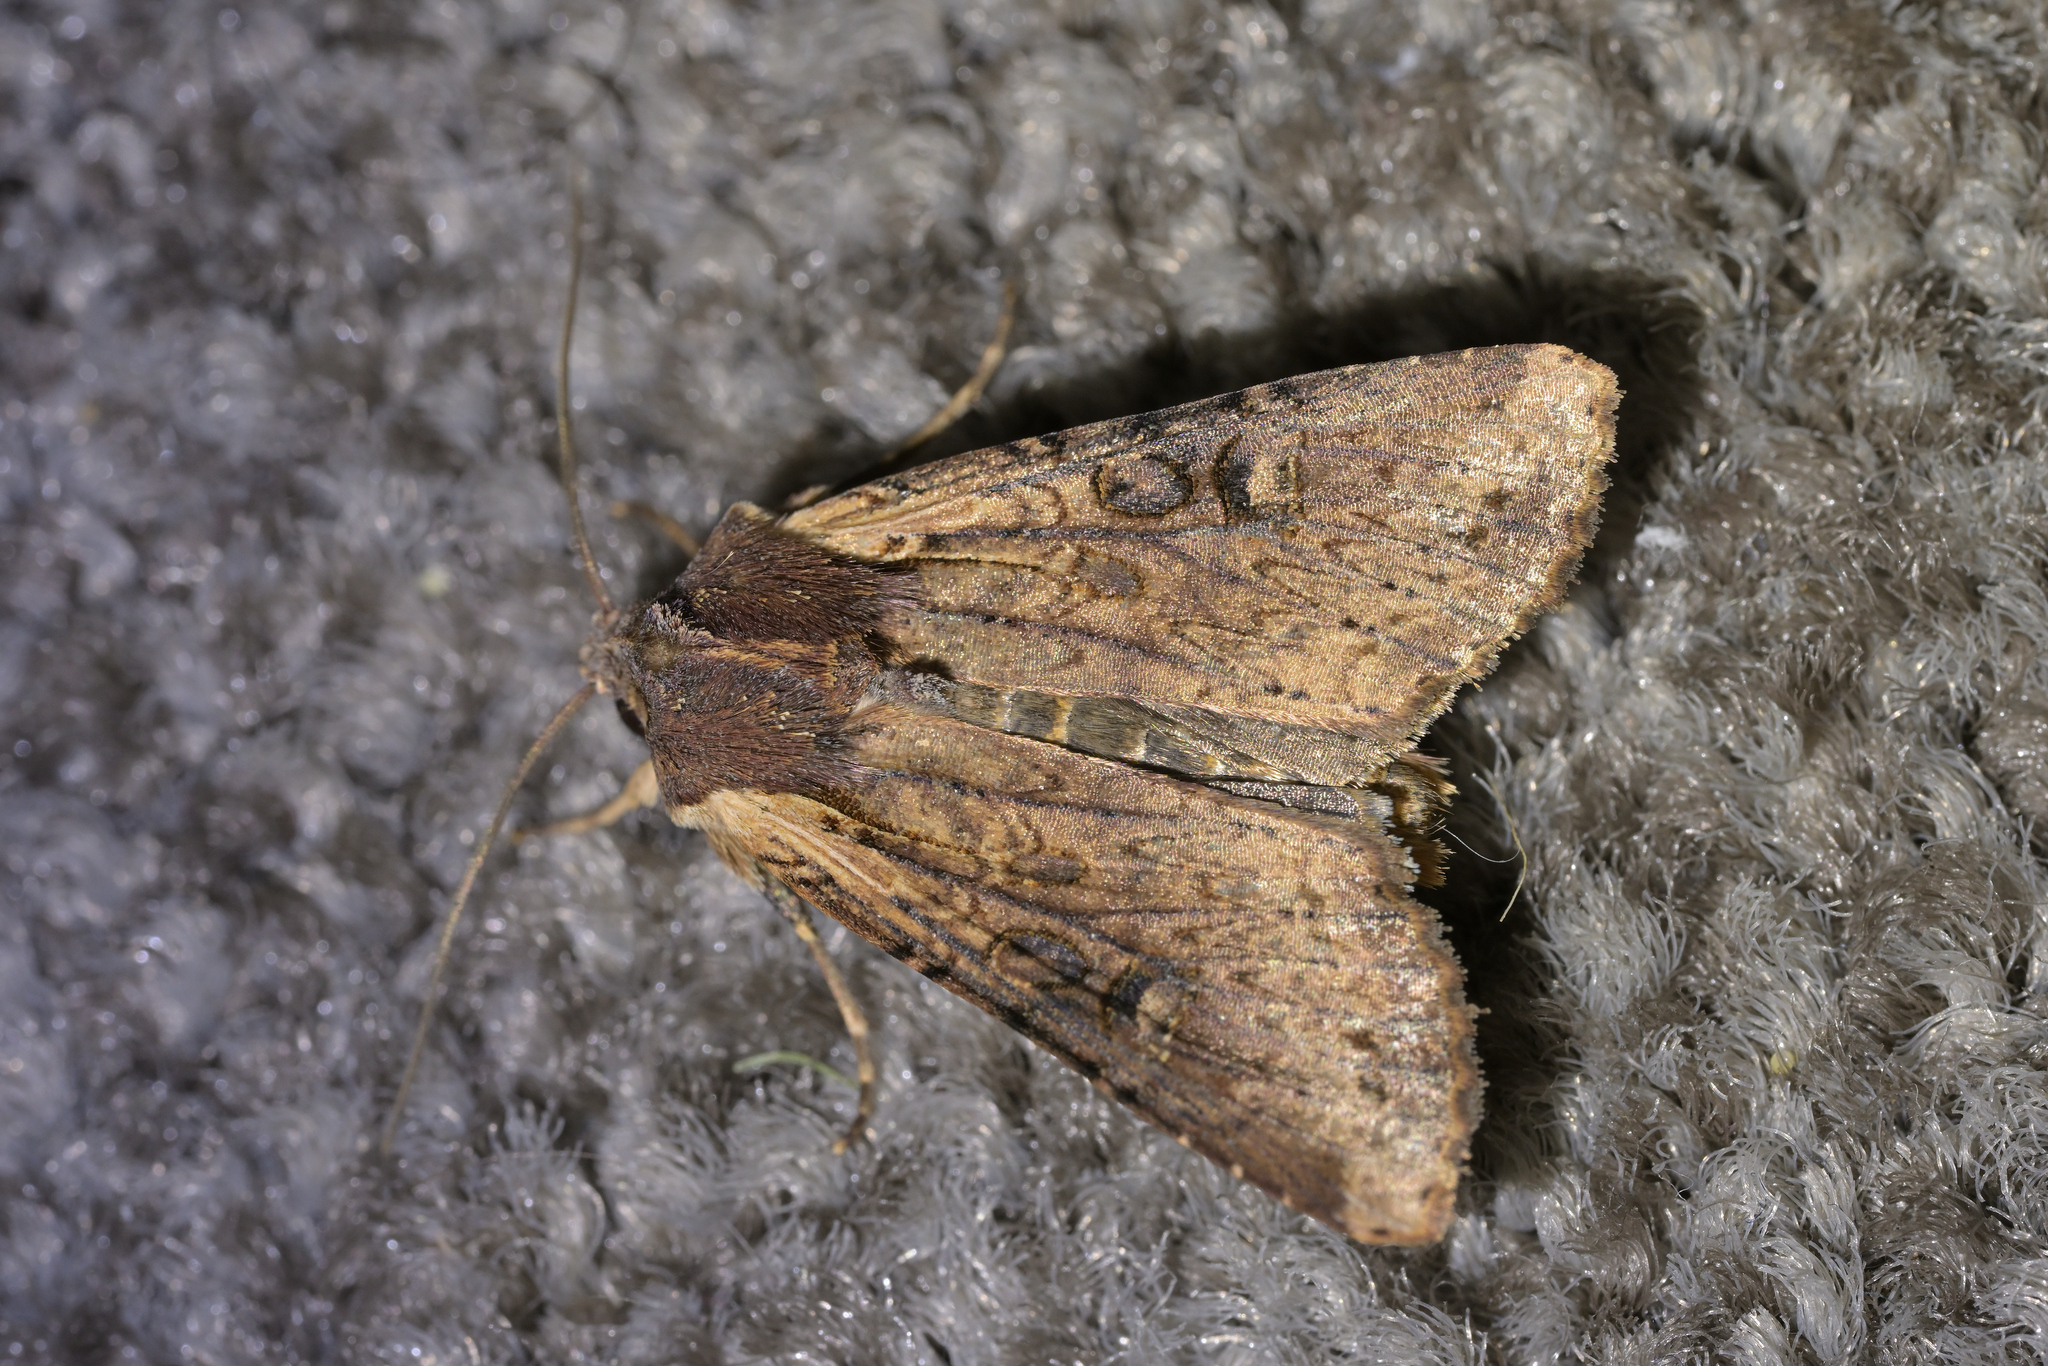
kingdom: Animalia
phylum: Arthropoda
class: Insecta
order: Lepidoptera
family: Noctuidae
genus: Ichneutica
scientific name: Ichneutica omoplaca
